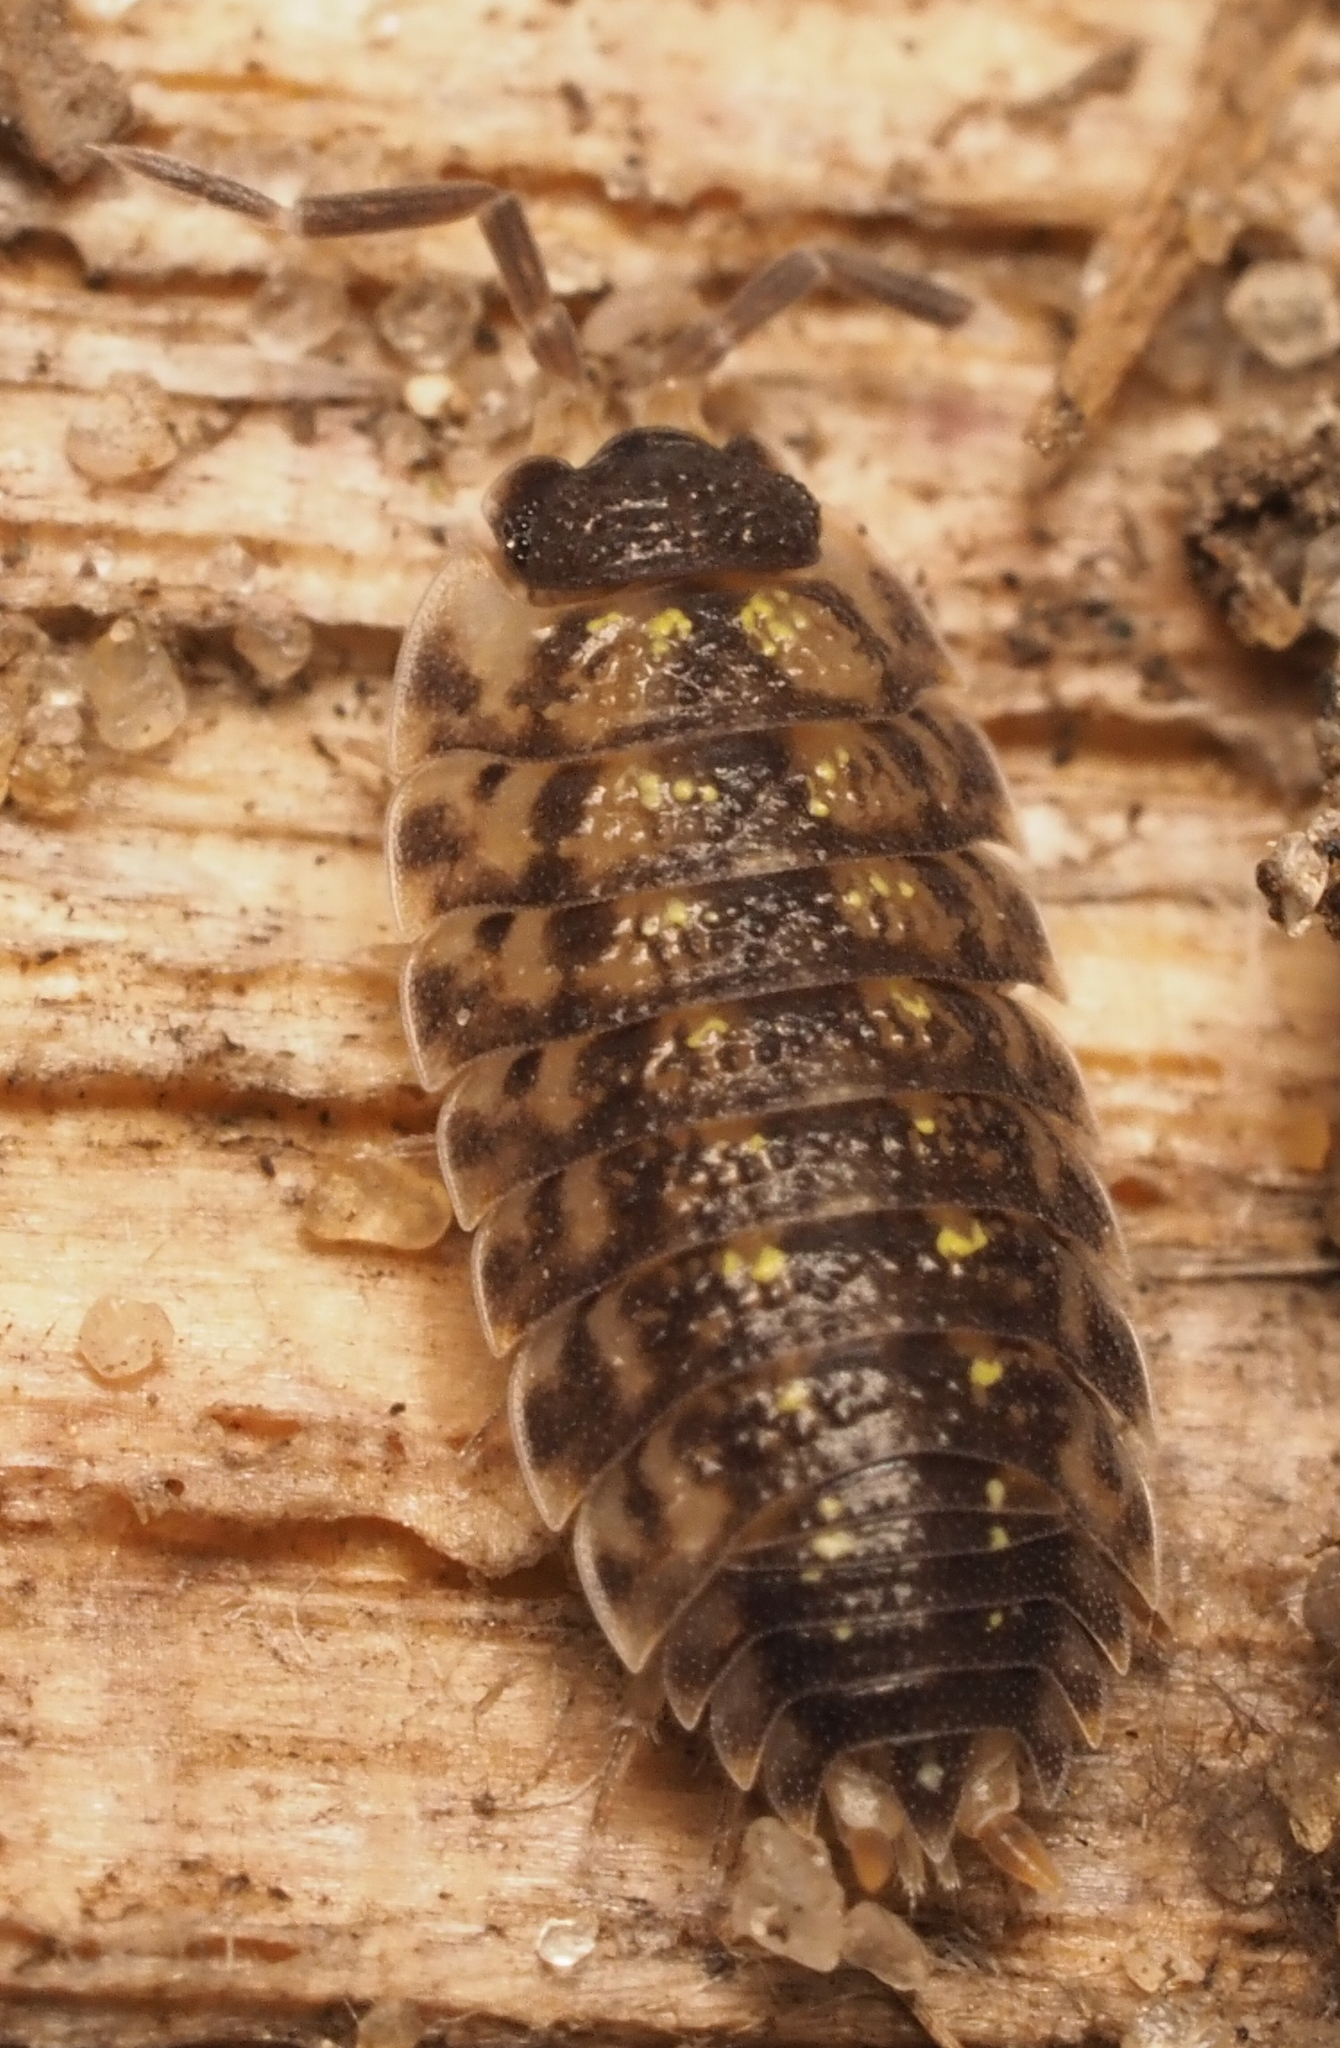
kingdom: Animalia
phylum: Arthropoda
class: Malacostraca
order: Isopoda
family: Porcellionidae
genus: Porcellio
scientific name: Porcellio spinicornis
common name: Painted woodlouse
